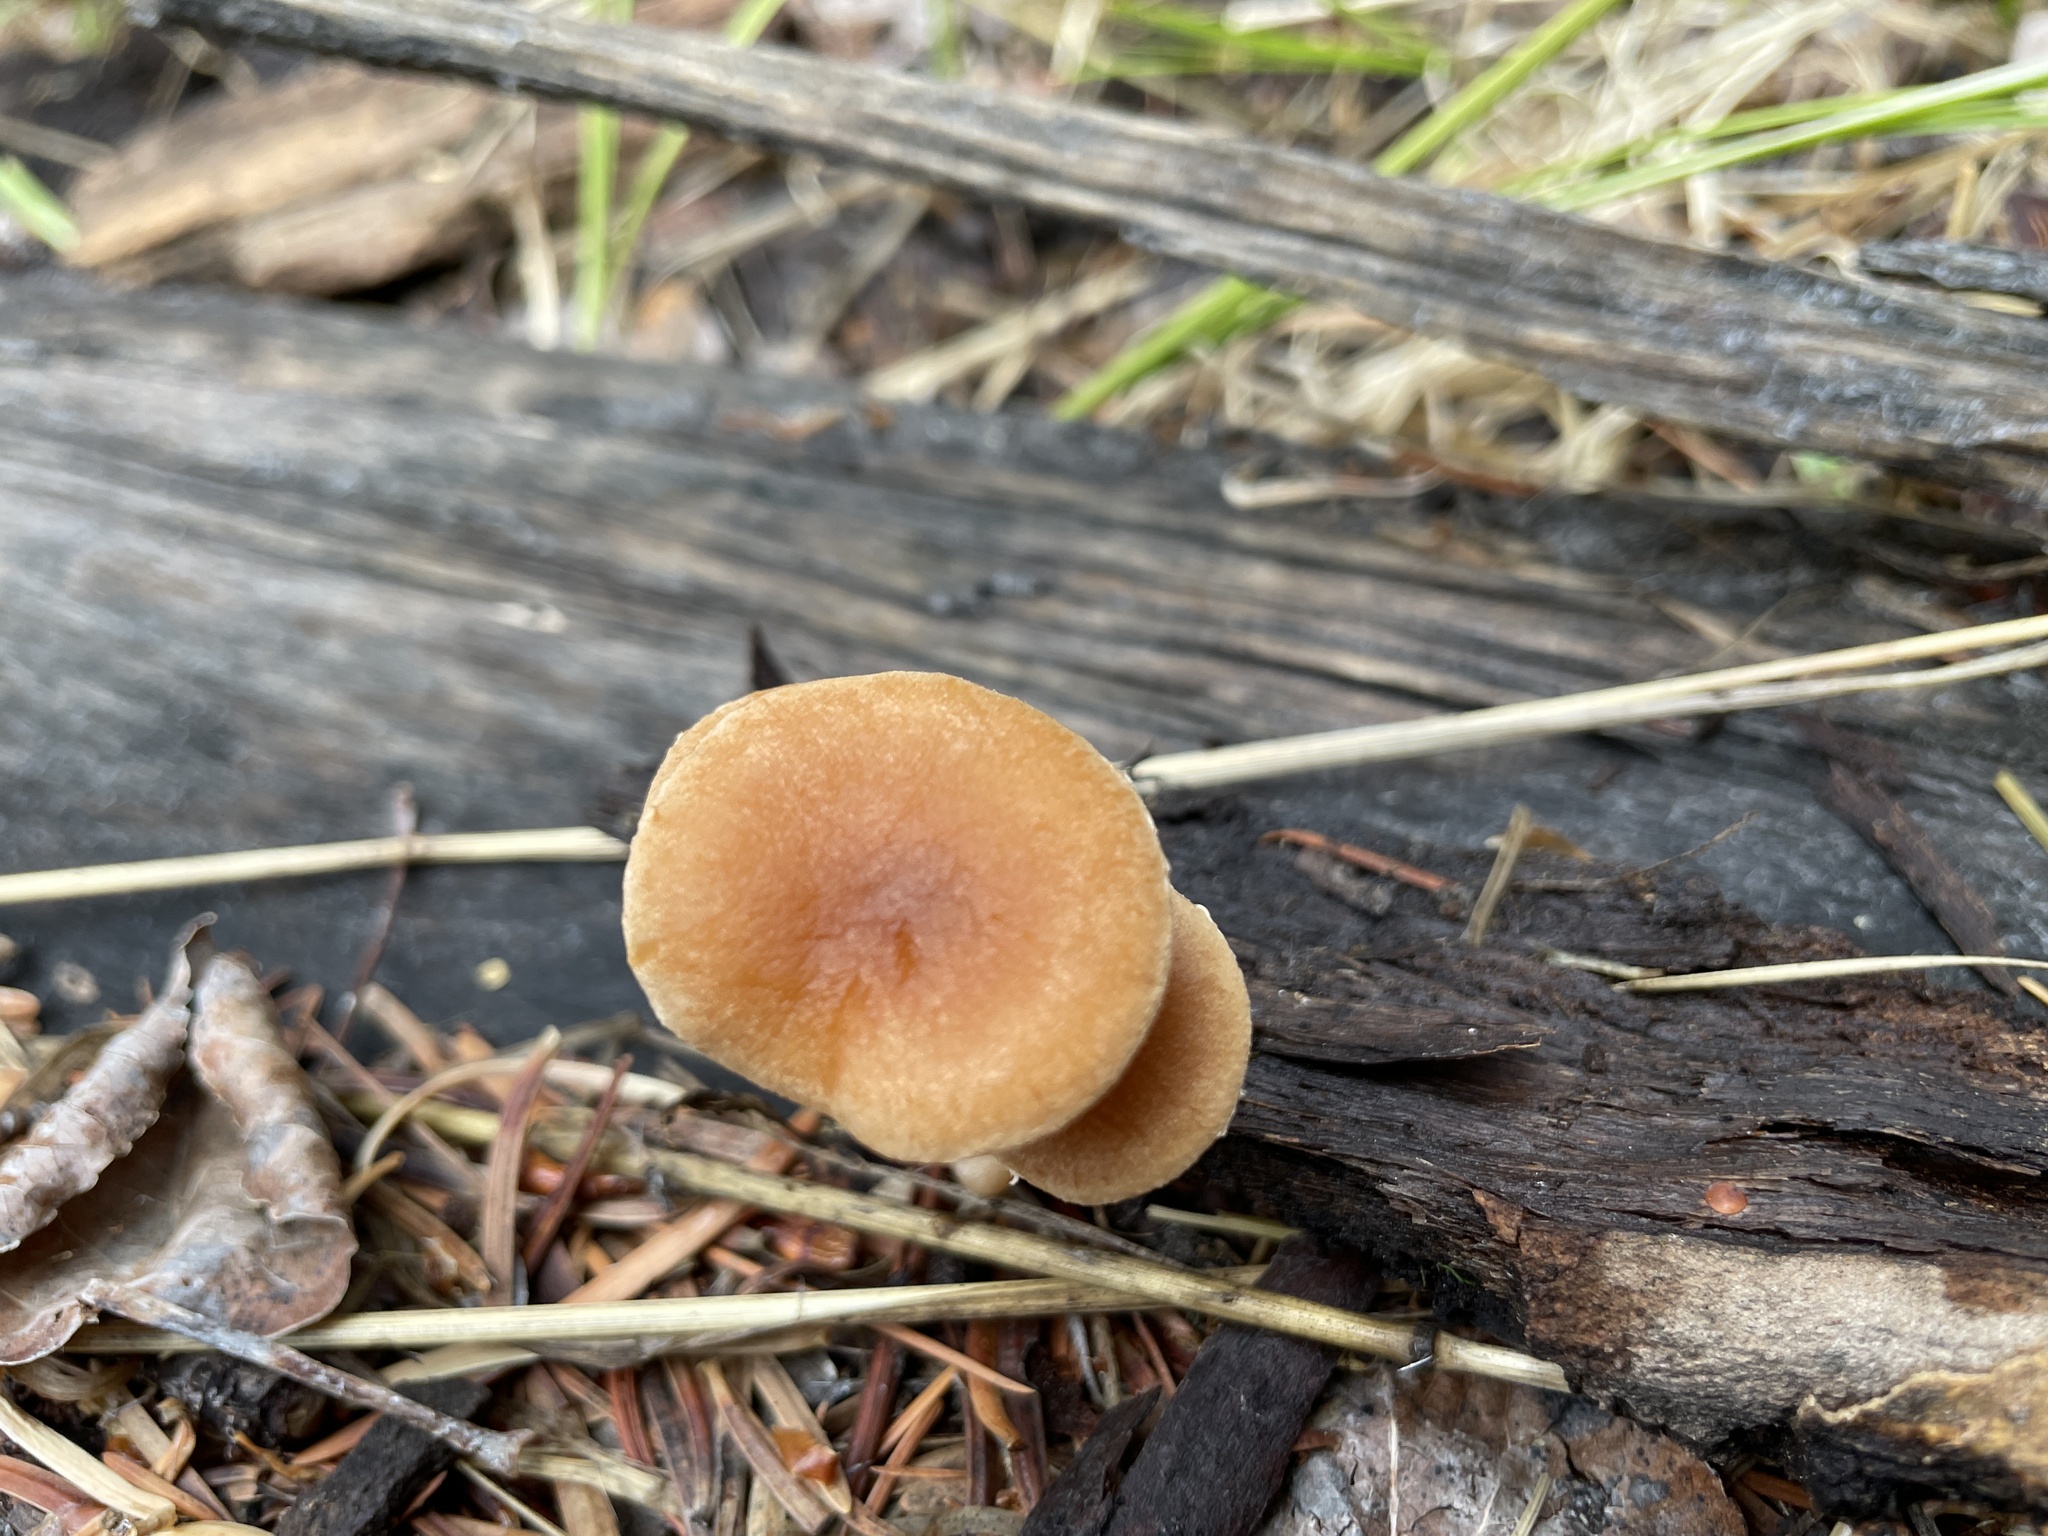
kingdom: Fungi
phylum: Basidiomycota
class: Agaricomycetes
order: Agaricales
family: Tubariaceae
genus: Tubaria
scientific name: Tubaria romagnesiana
